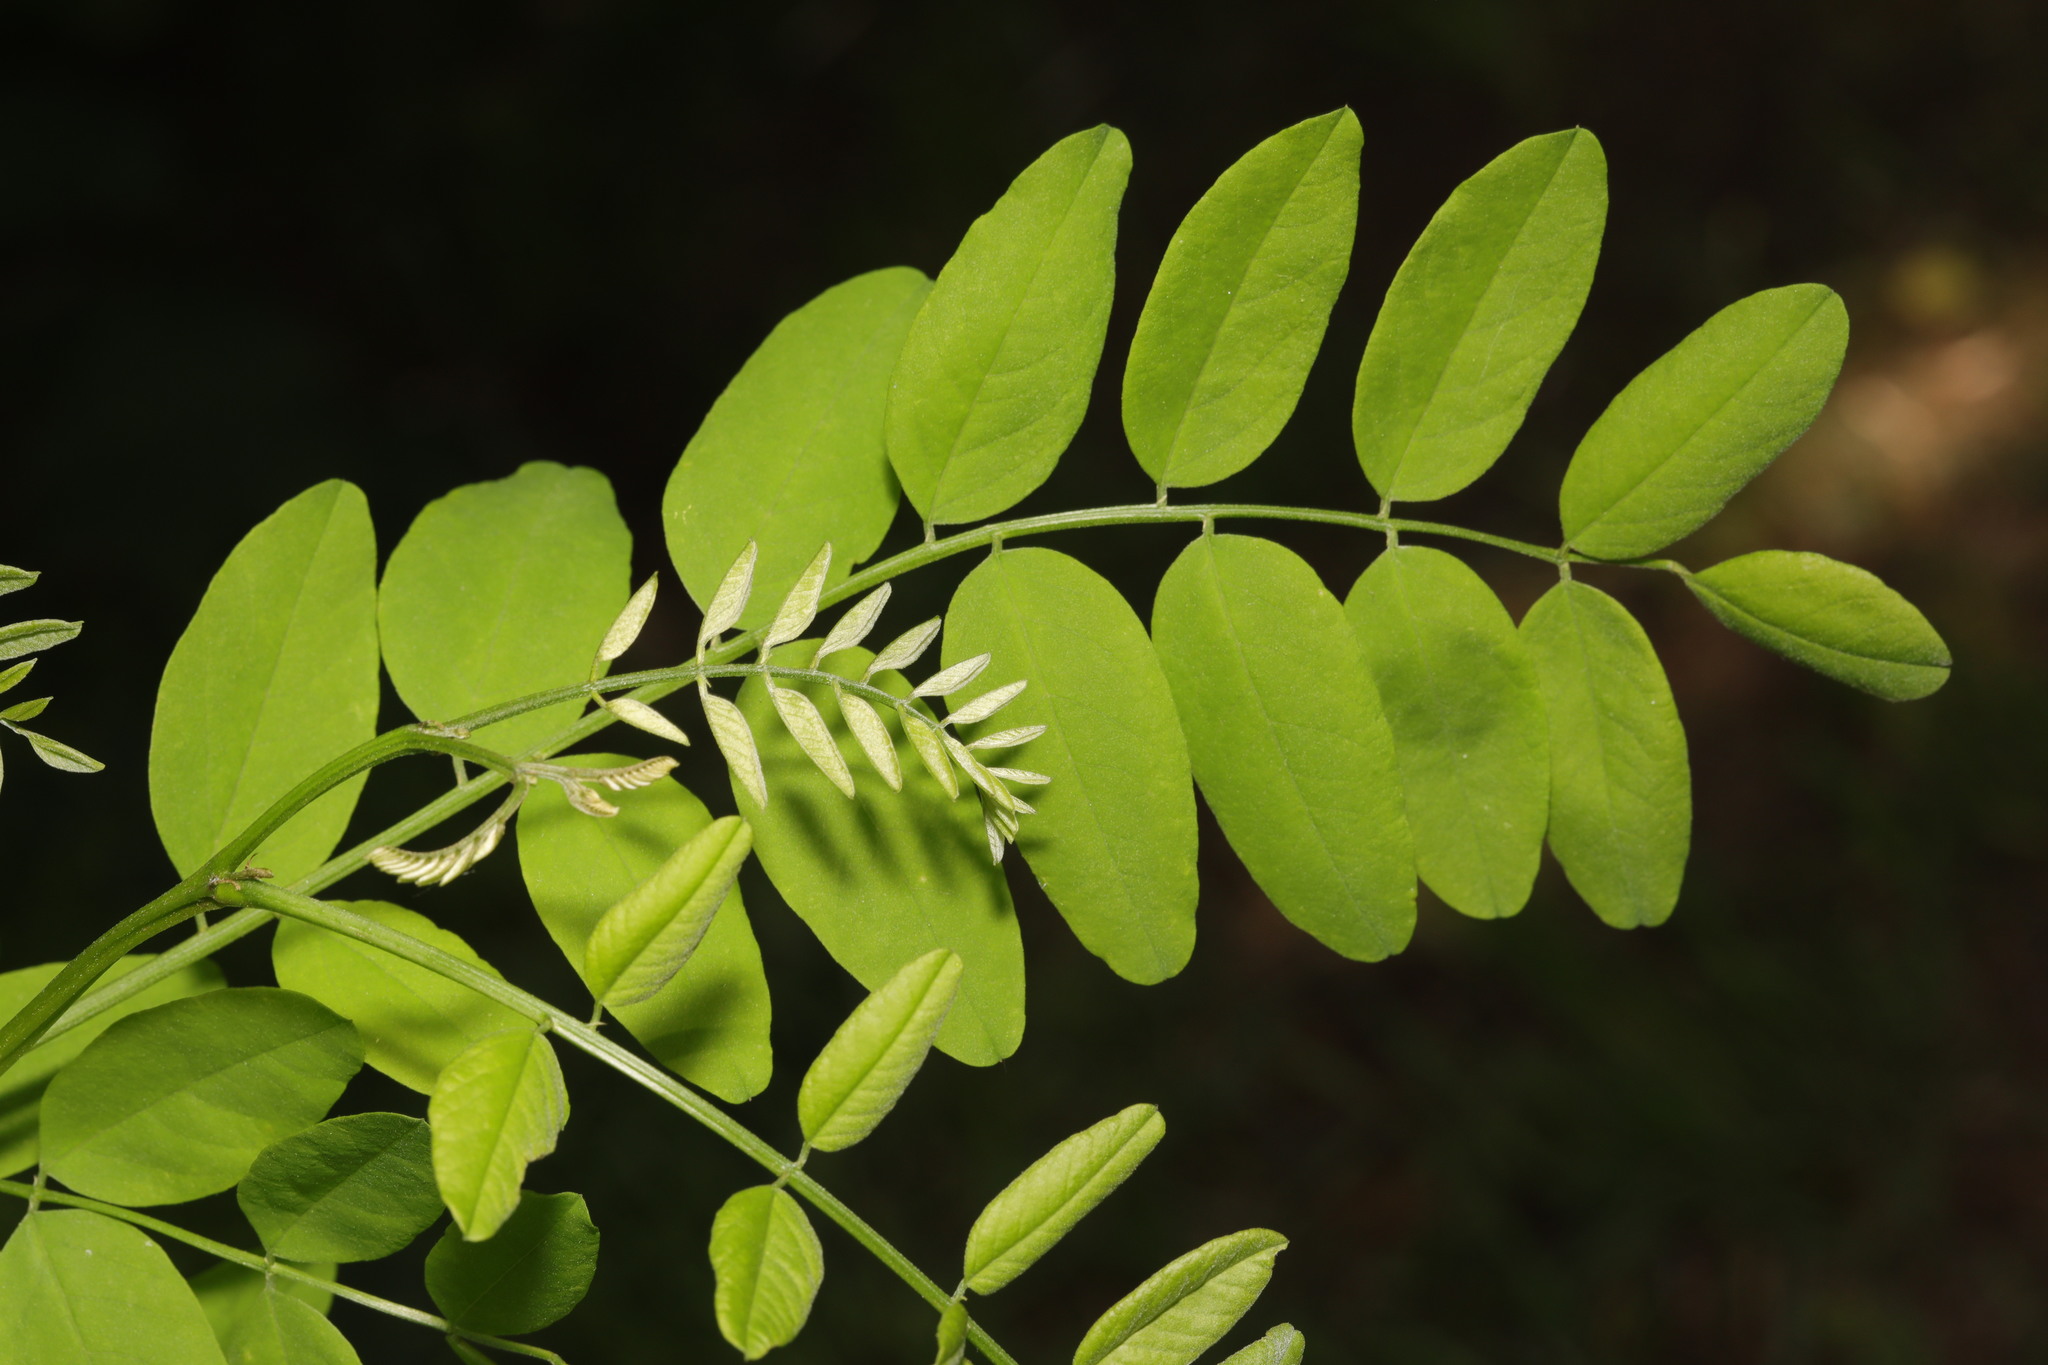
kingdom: Plantae
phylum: Tracheophyta
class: Magnoliopsida
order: Fabales
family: Fabaceae
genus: Robinia
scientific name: Robinia pseudoacacia
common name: Black locust
